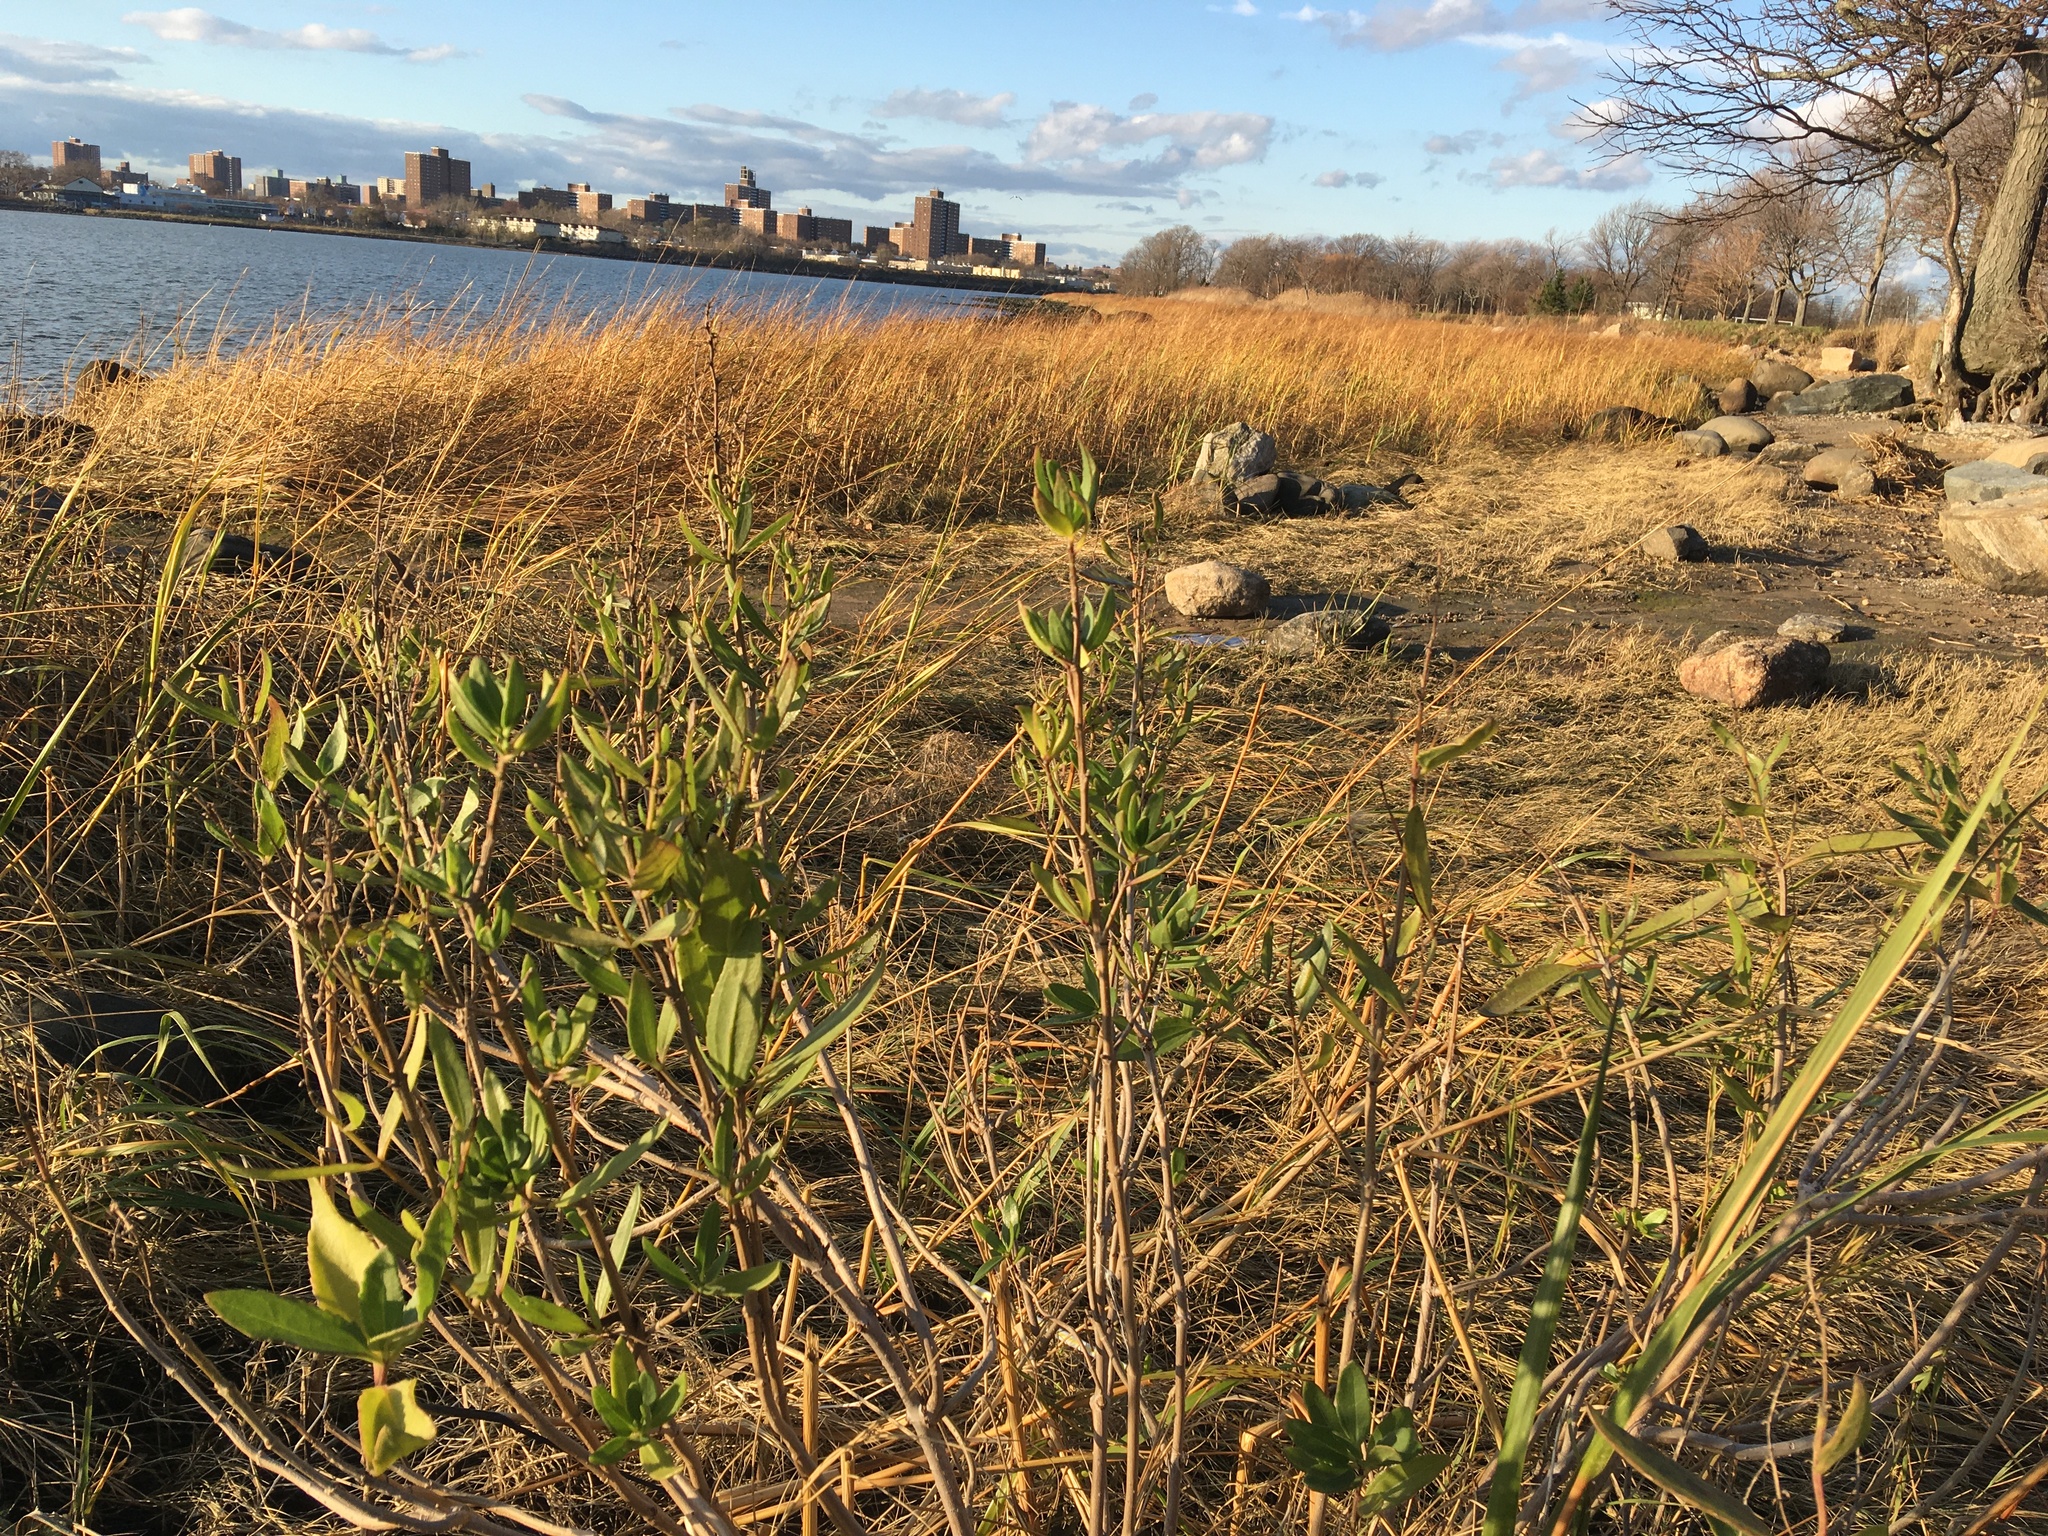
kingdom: Plantae
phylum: Tracheophyta
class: Magnoliopsida
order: Asterales
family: Asteraceae
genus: Iva
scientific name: Iva frutescens
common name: Big-leaved marsh-elder
